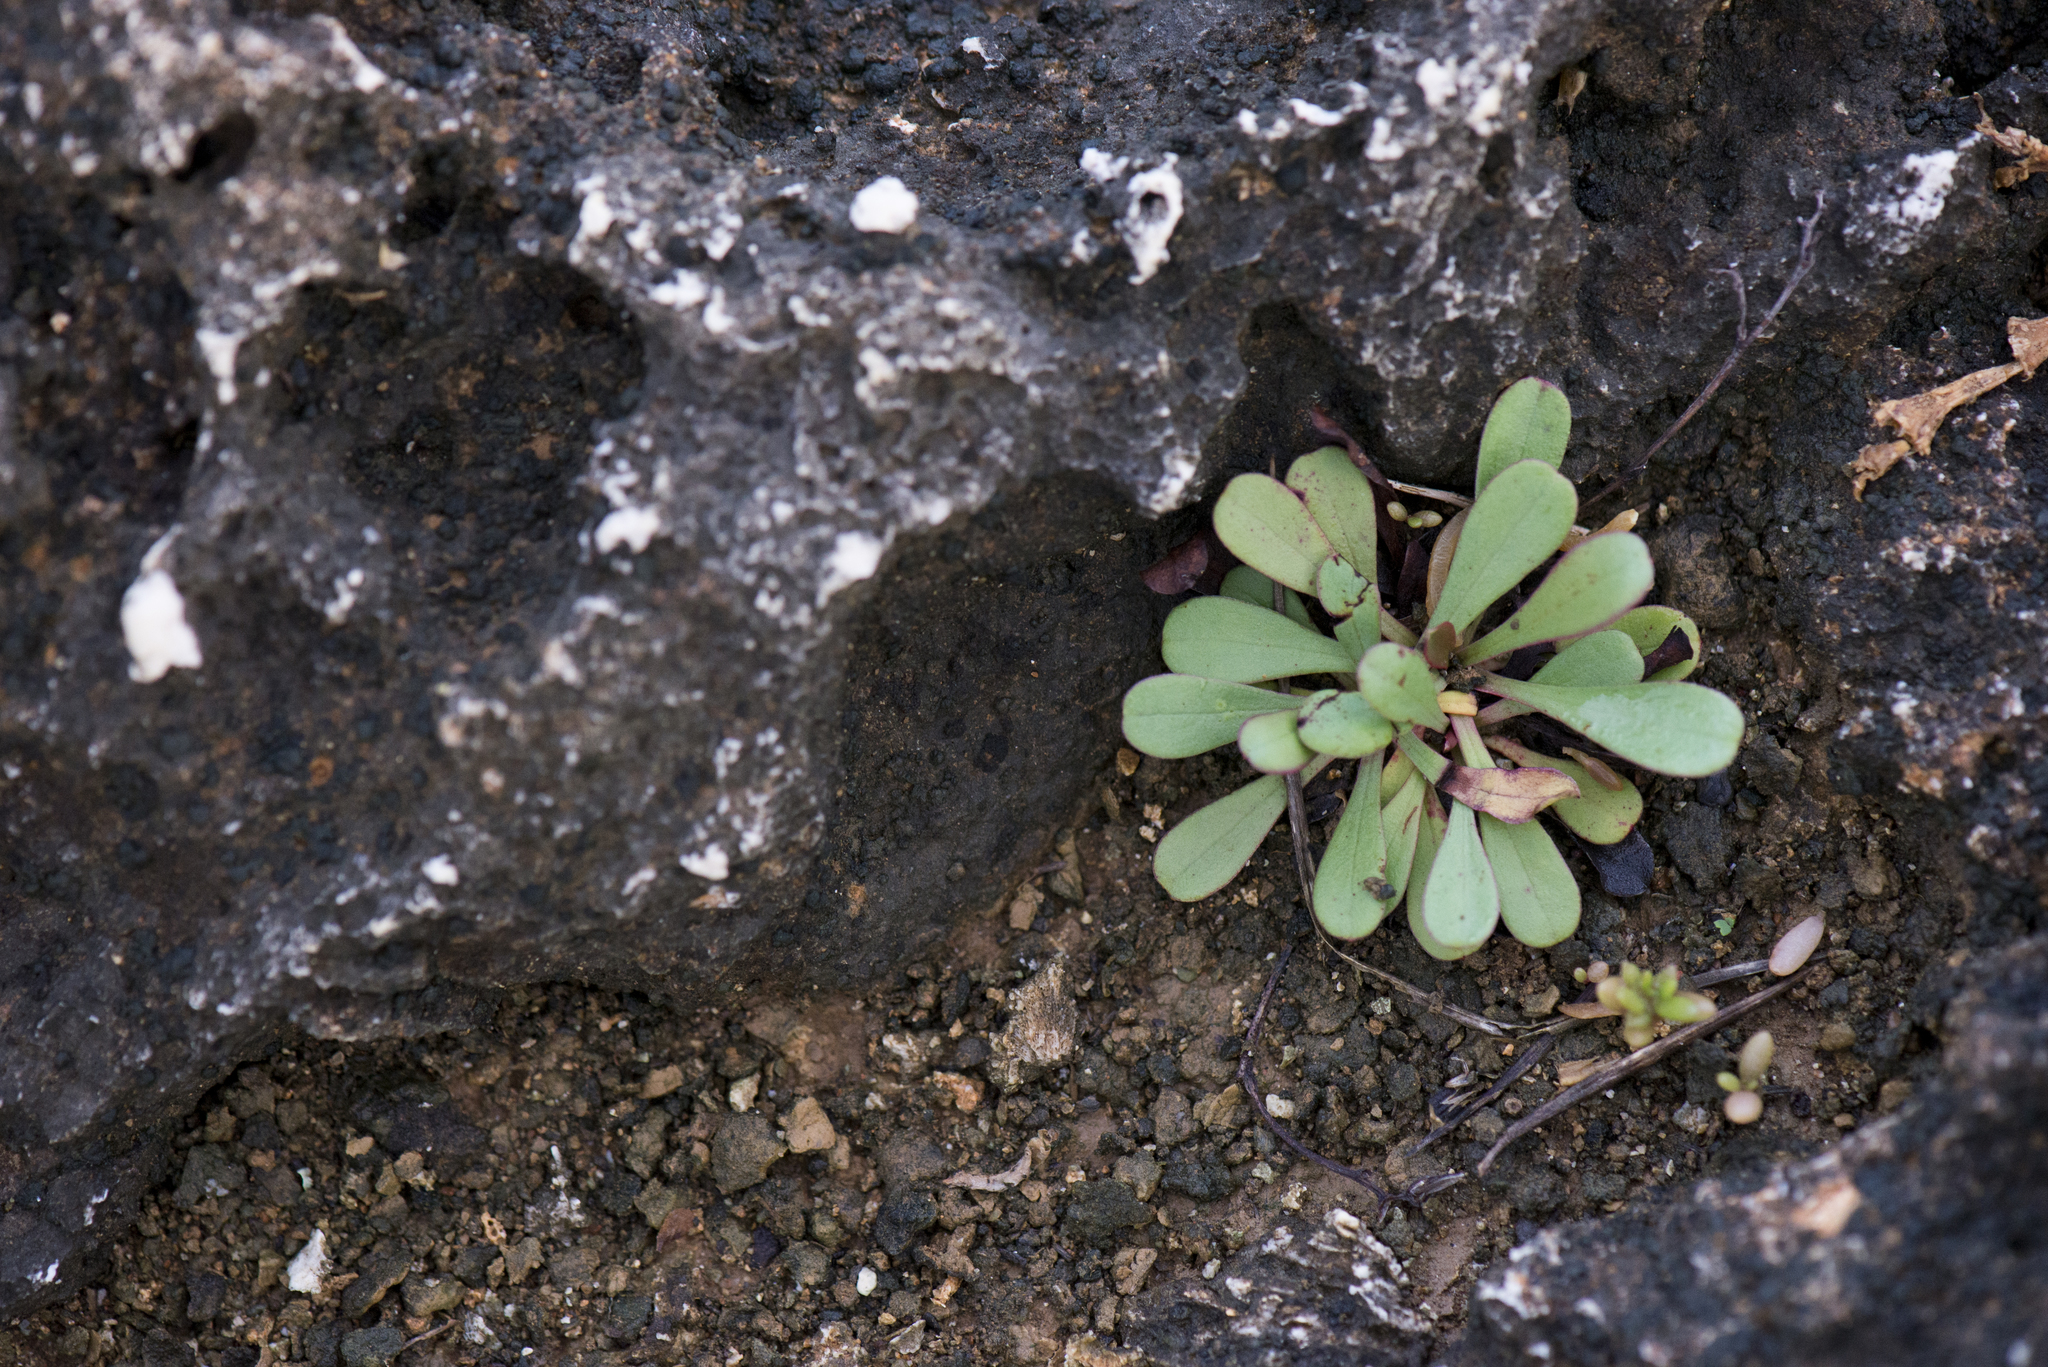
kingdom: Plantae
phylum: Tracheophyta
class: Magnoliopsida
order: Caryophyllales
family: Plumbaginaceae
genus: Limonium
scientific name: Limonium sinense
